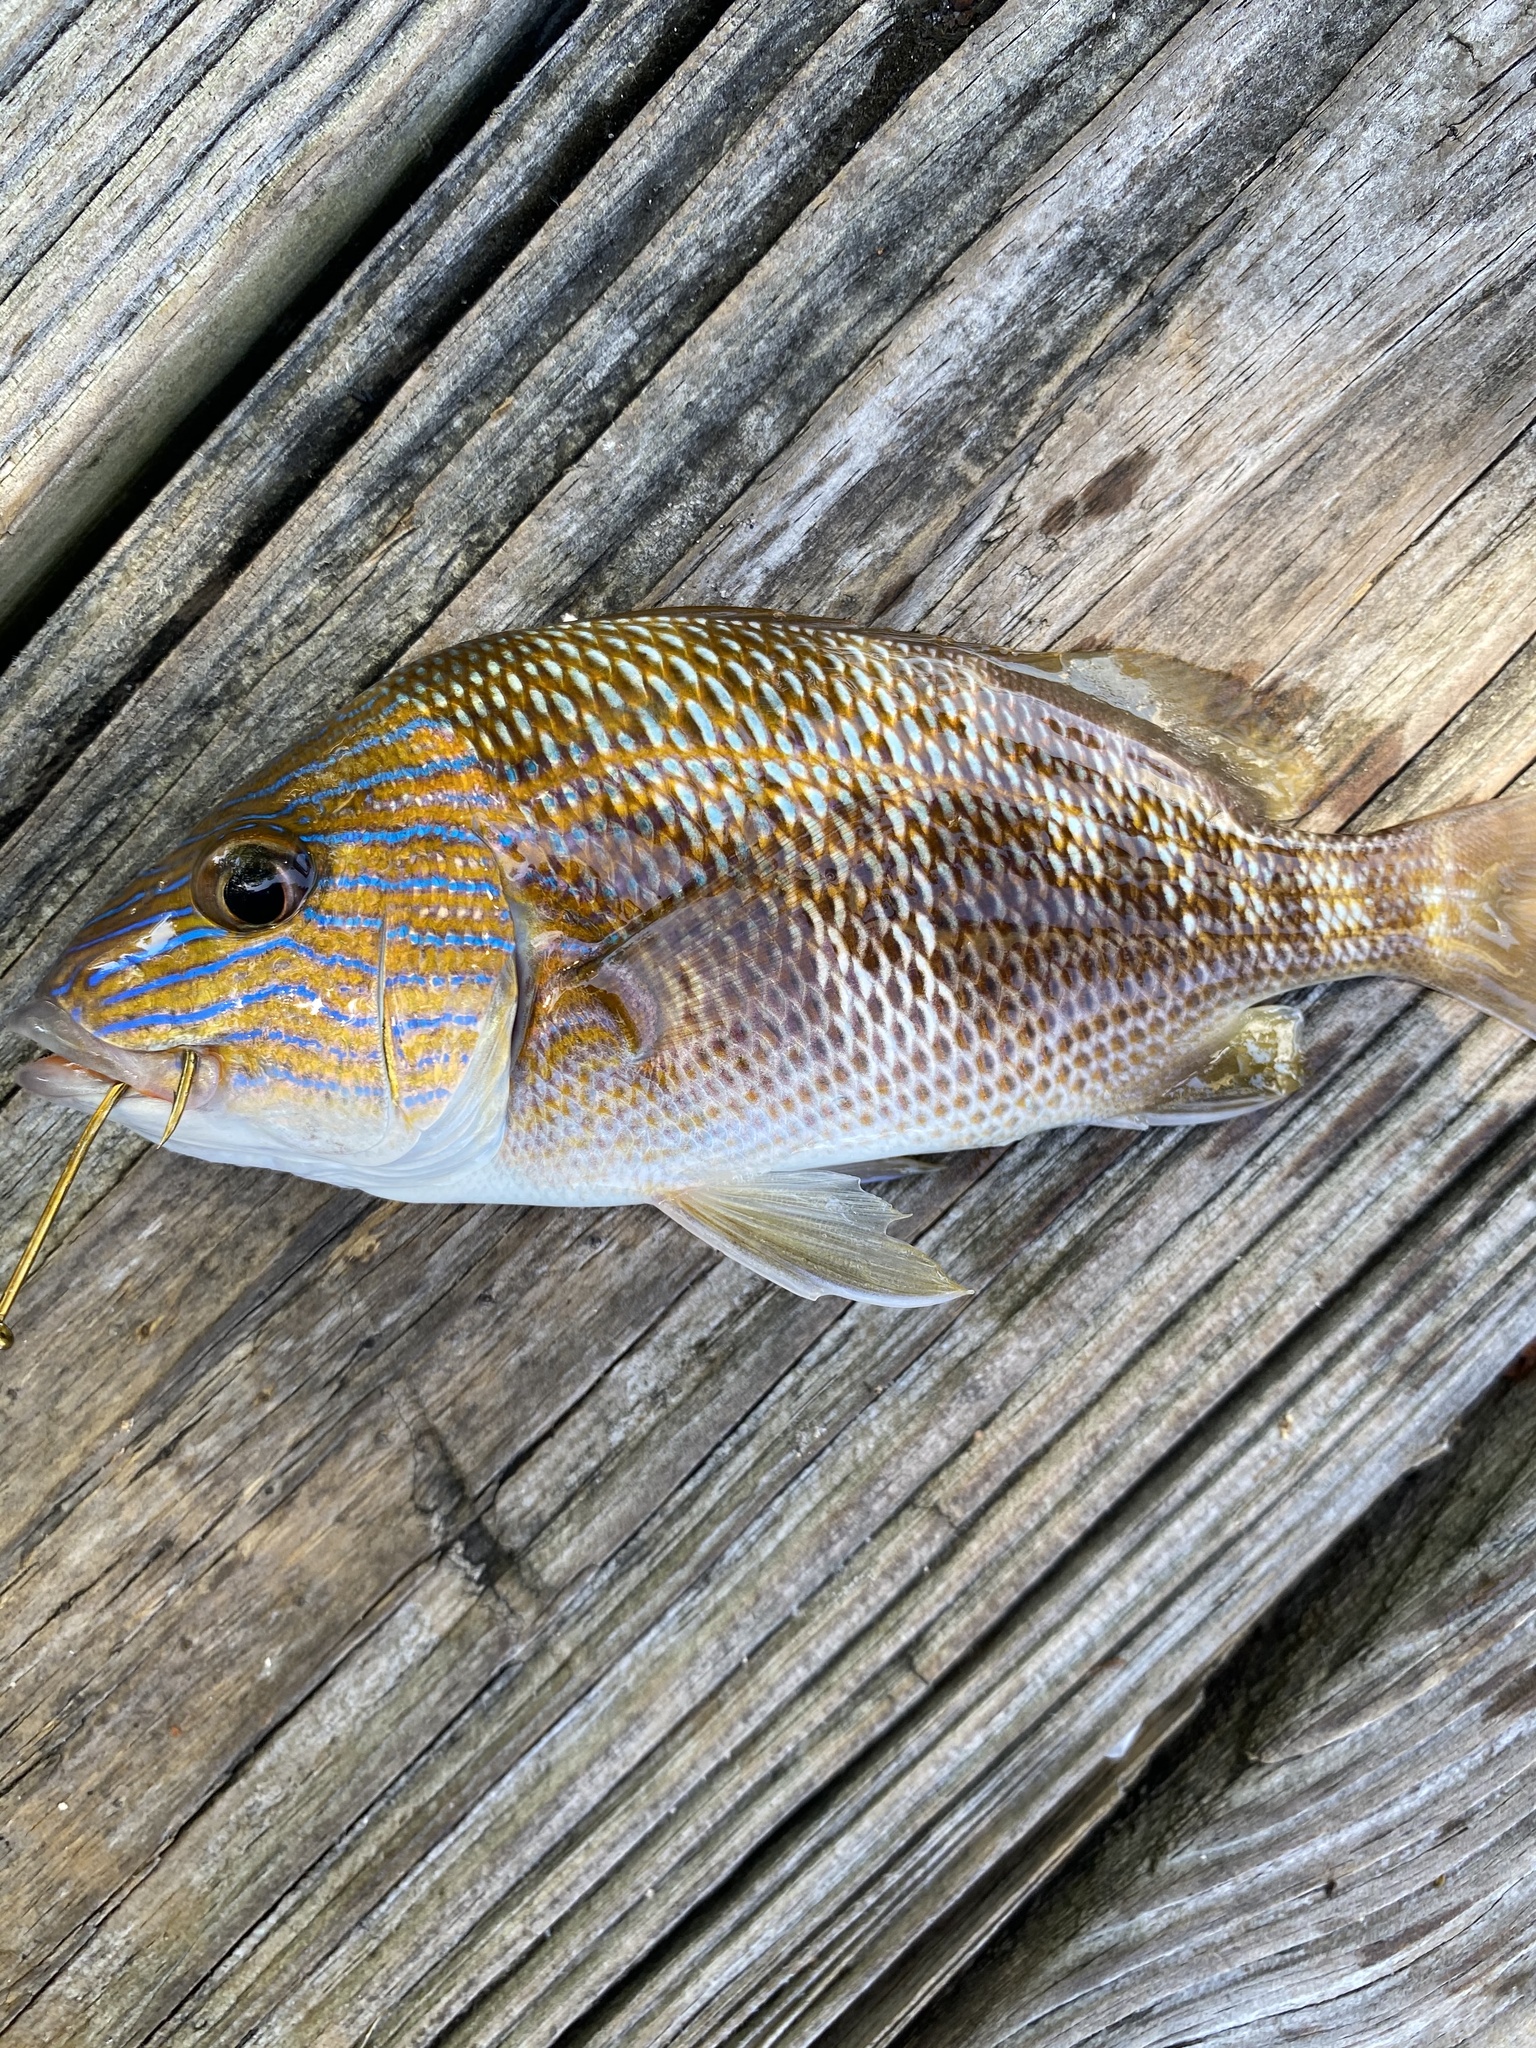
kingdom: Animalia
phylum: Chordata
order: Perciformes
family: Haemulidae
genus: Haemulon
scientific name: Haemulon plumierii
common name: White grunt
